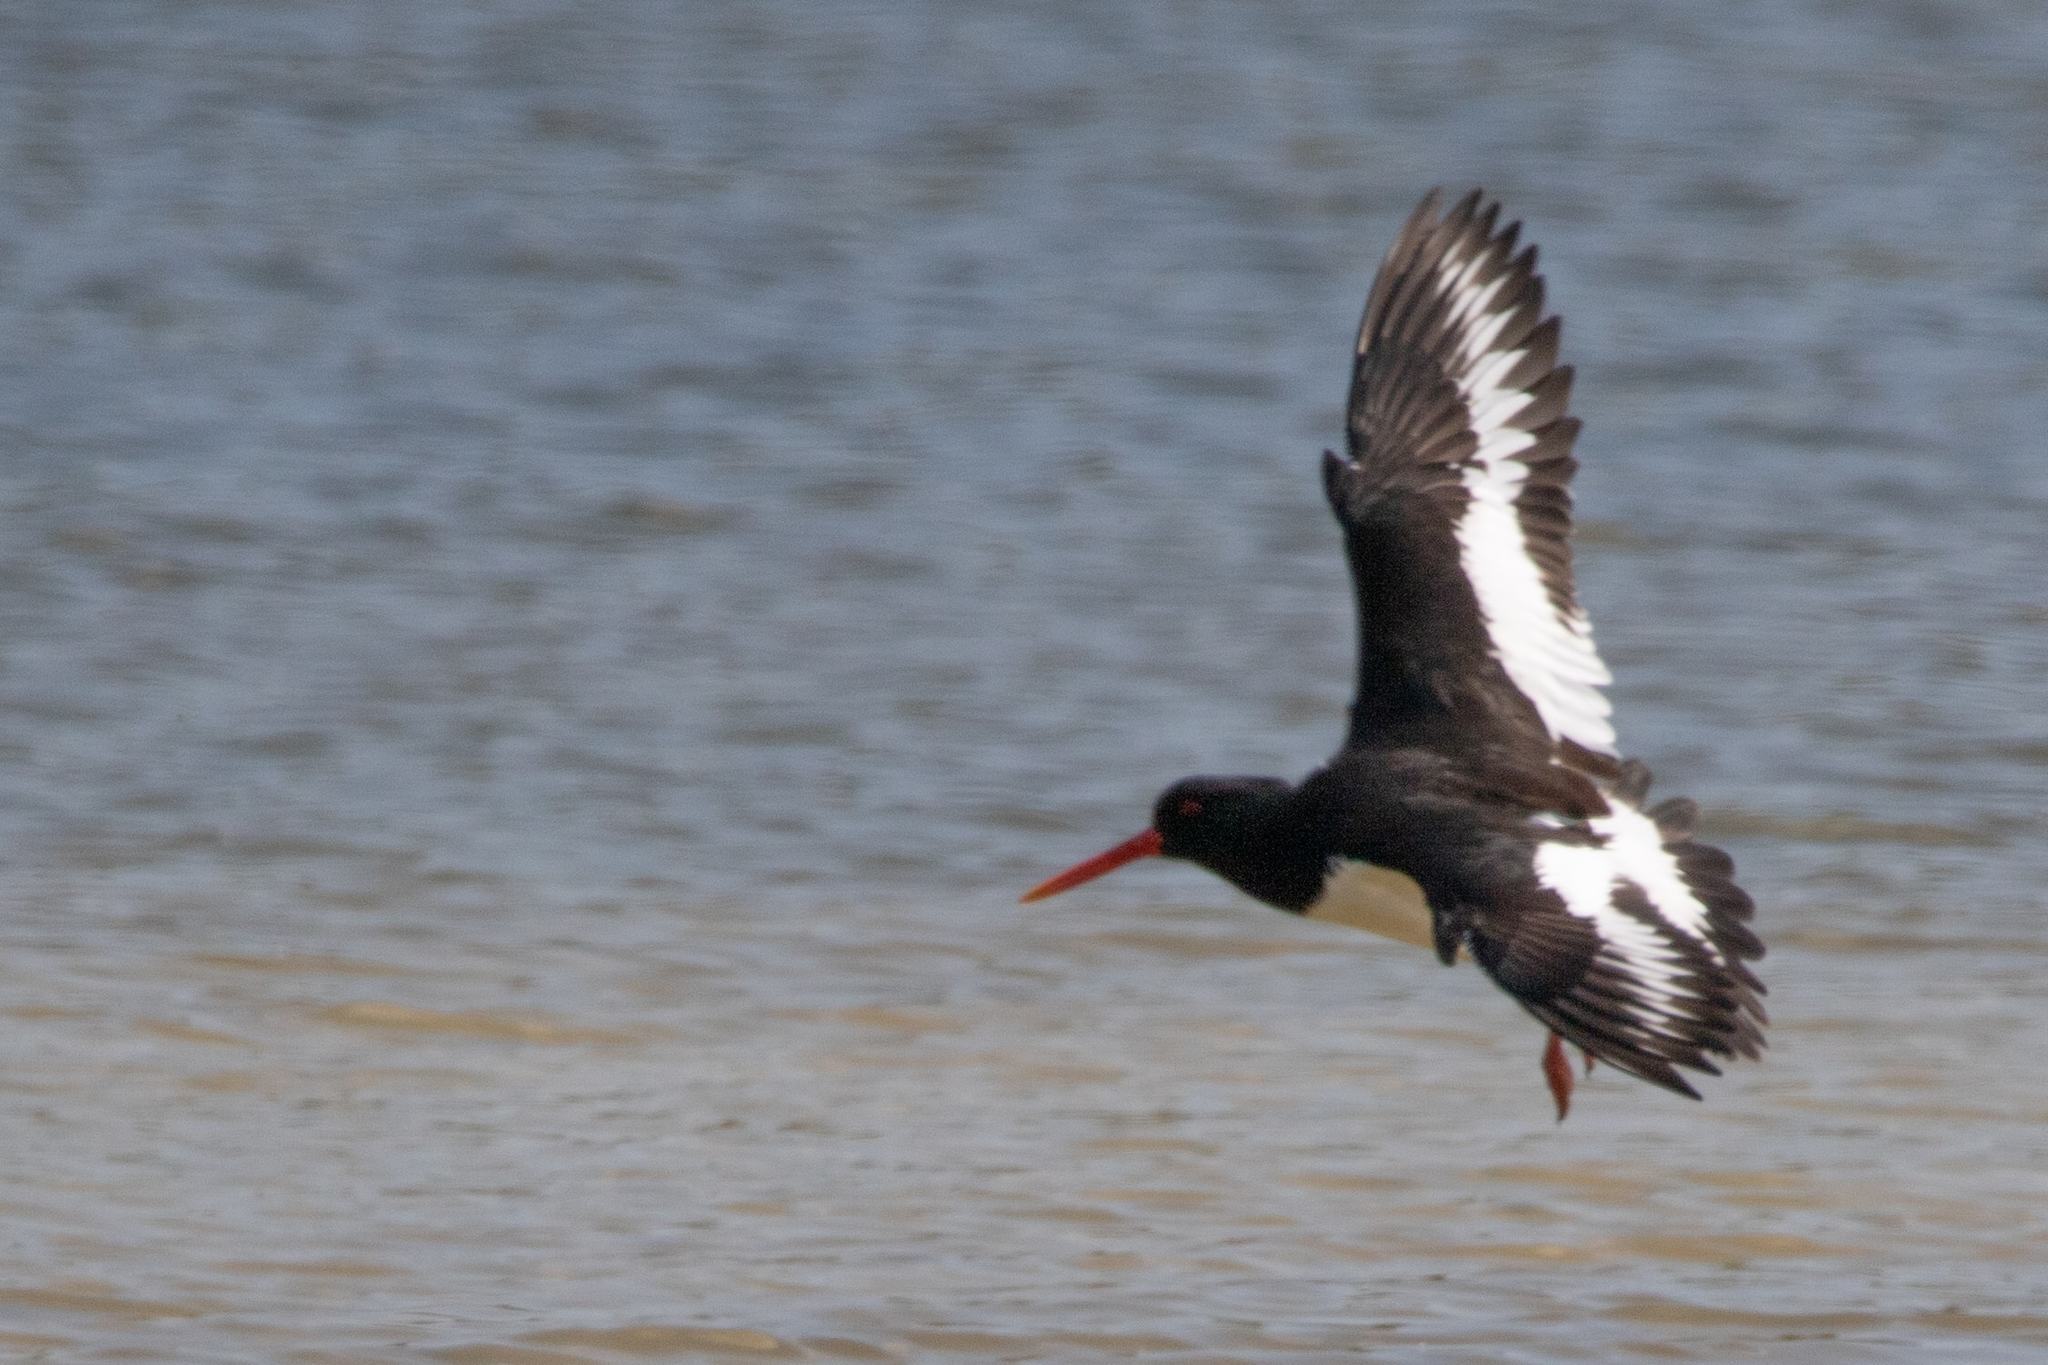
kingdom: Animalia
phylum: Chordata
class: Aves
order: Charadriiformes
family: Haematopodidae
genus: Haematopus
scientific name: Haematopus ostralegus
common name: Eurasian oystercatcher
